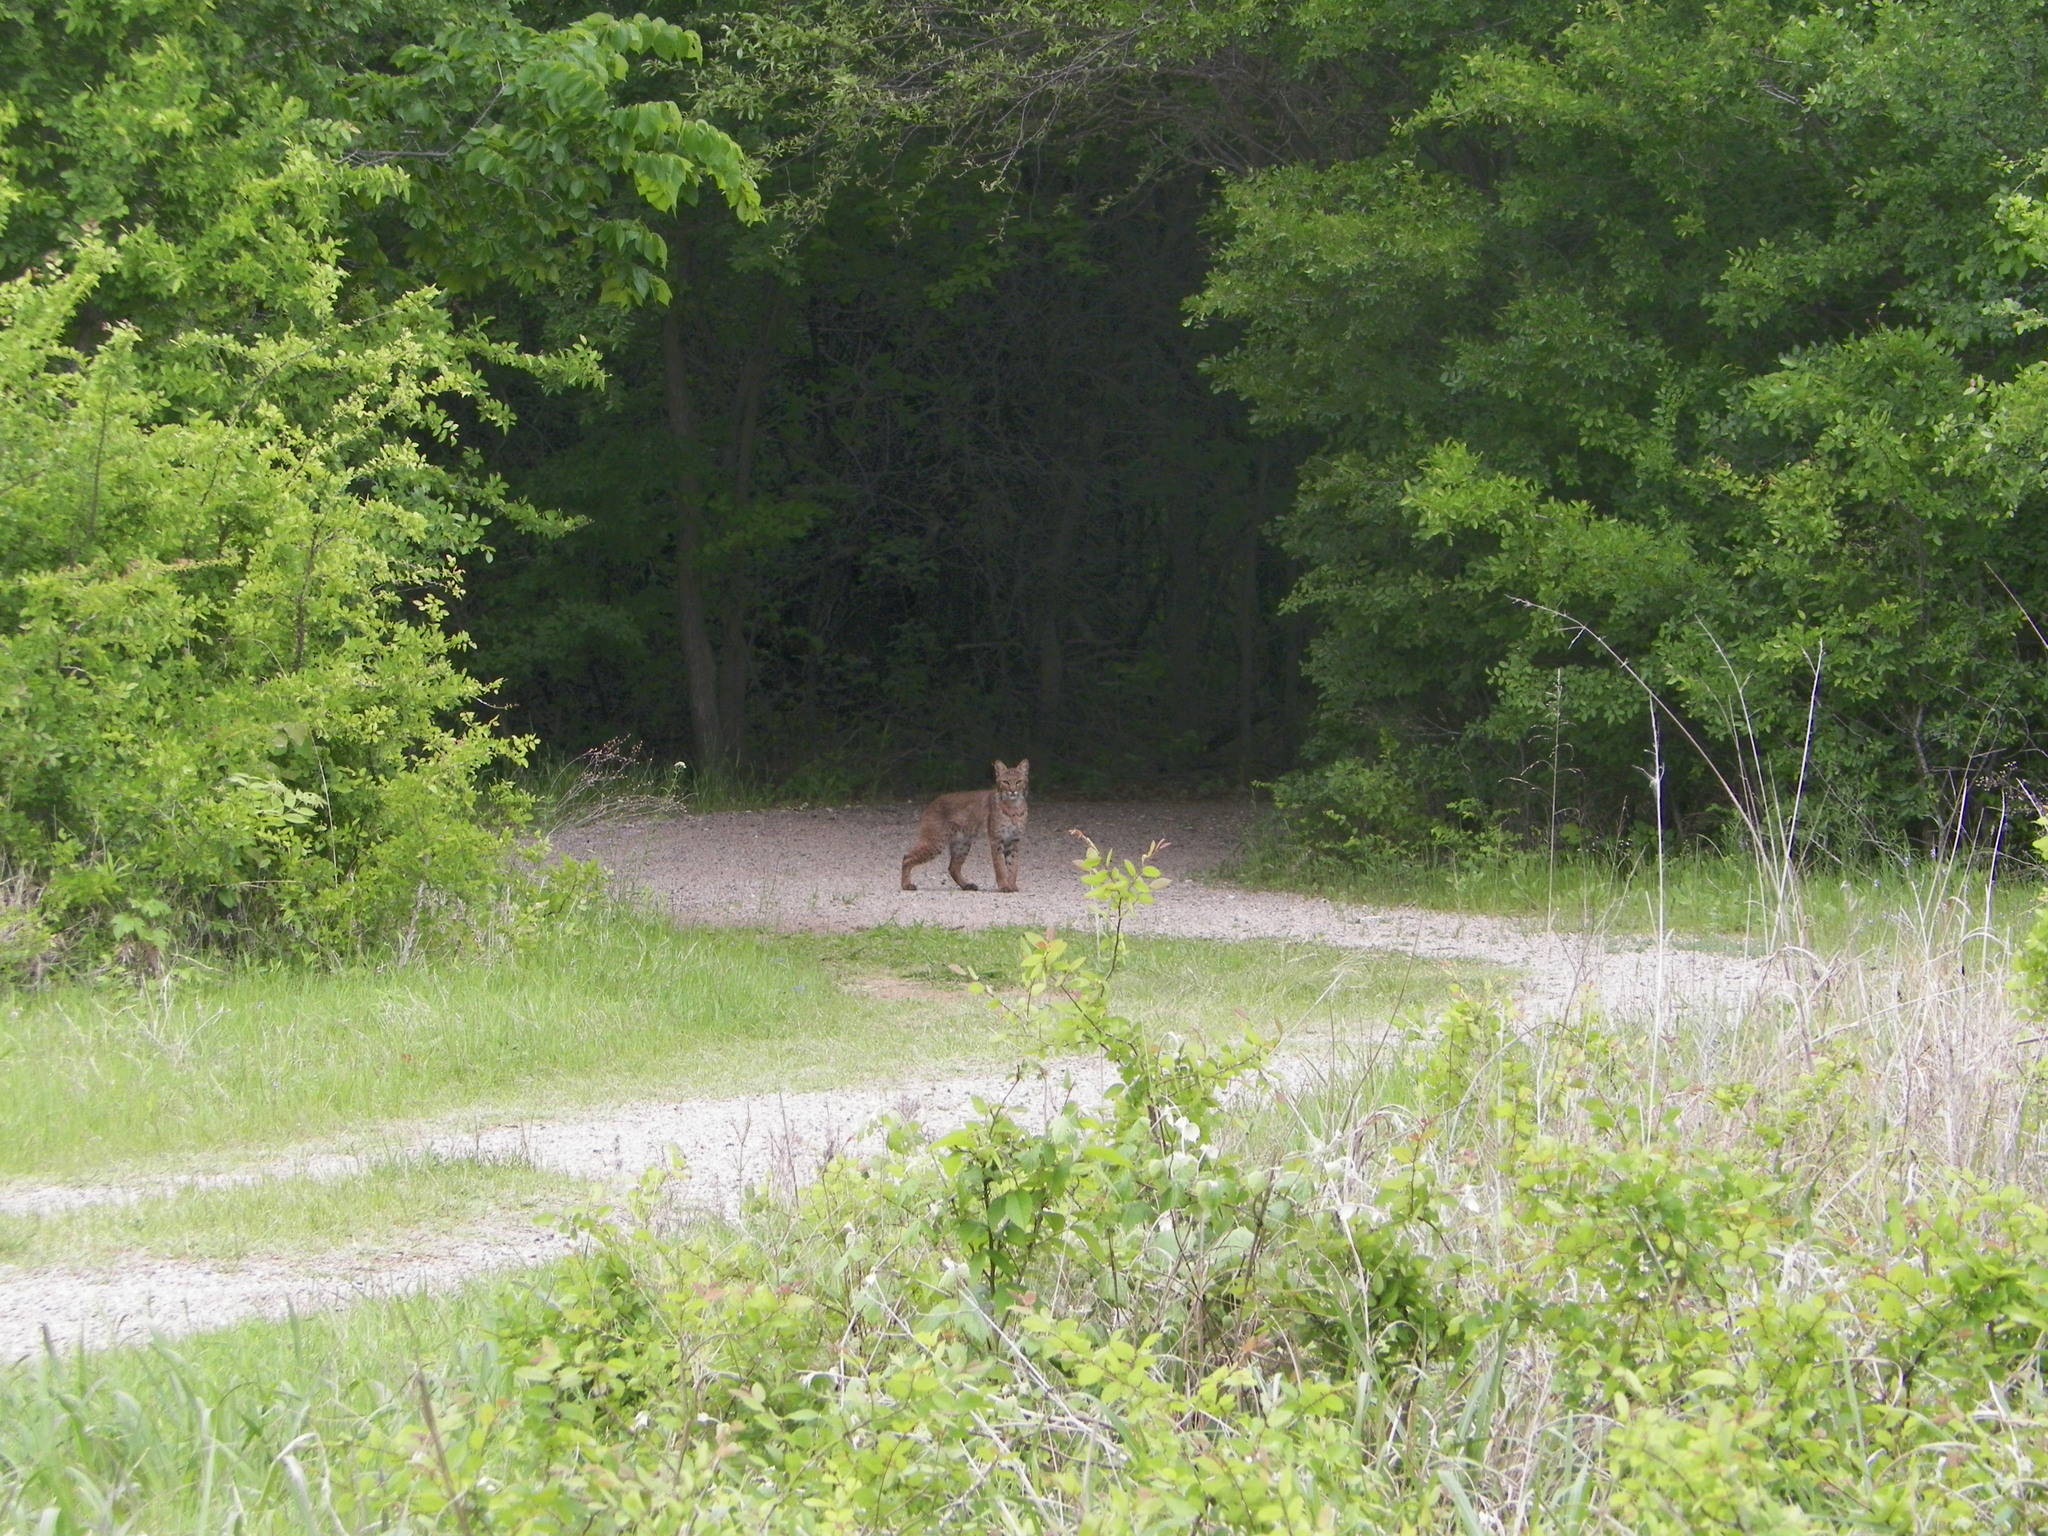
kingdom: Animalia
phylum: Chordata
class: Mammalia
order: Carnivora
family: Felidae
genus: Lynx
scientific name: Lynx rufus
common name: Bobcat
